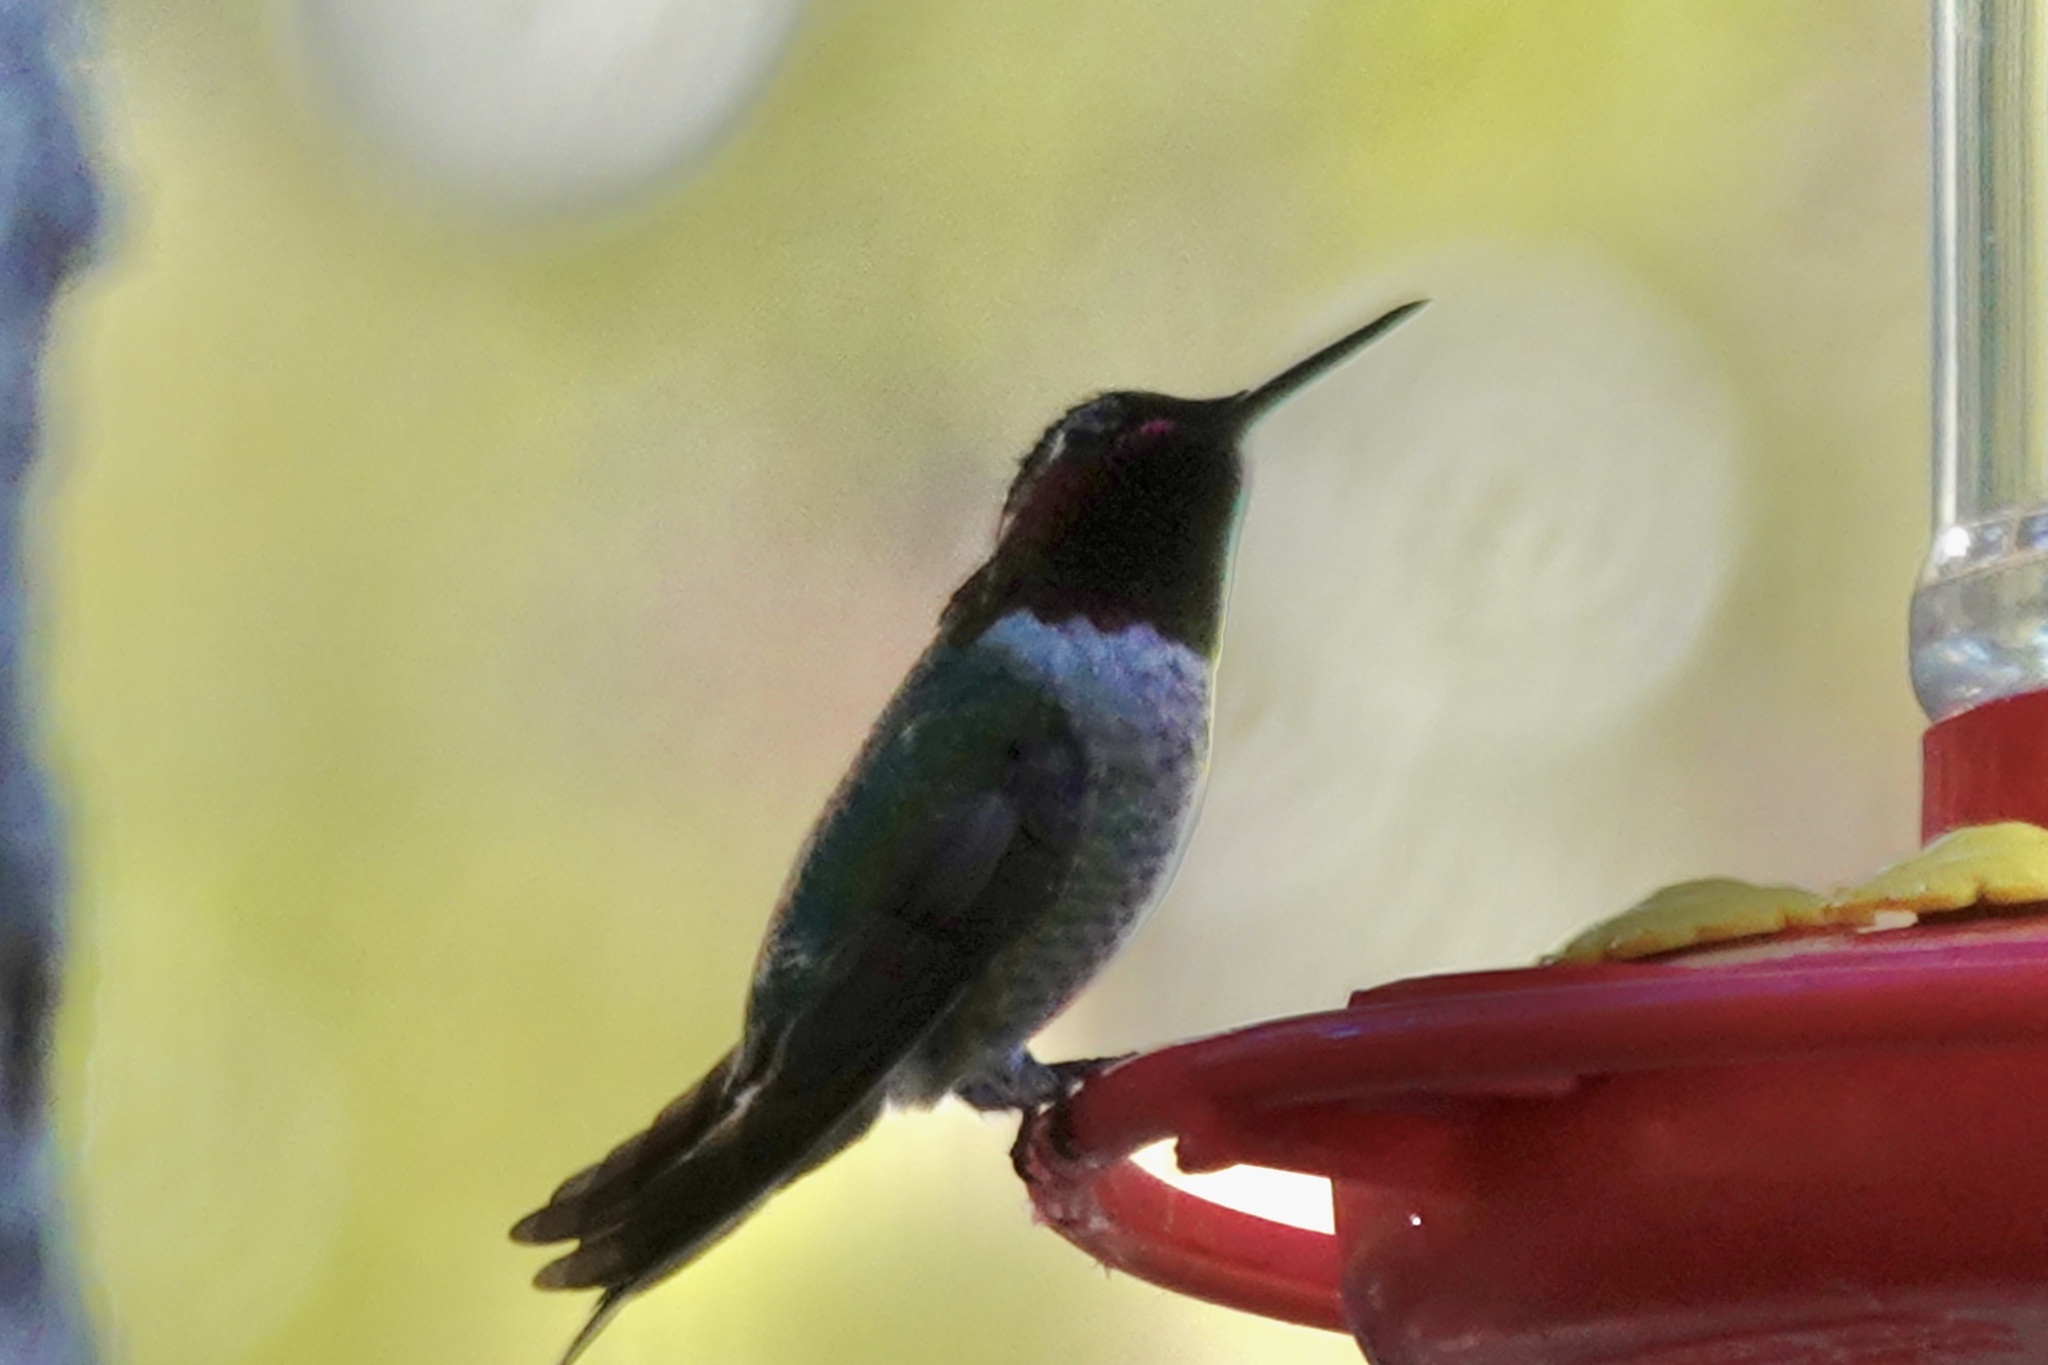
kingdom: Animalia
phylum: Chordata
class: Aves
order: Apodiformes
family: Trochilidae
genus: Calypte
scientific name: Calypte anna
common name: Anna's hummingbird
